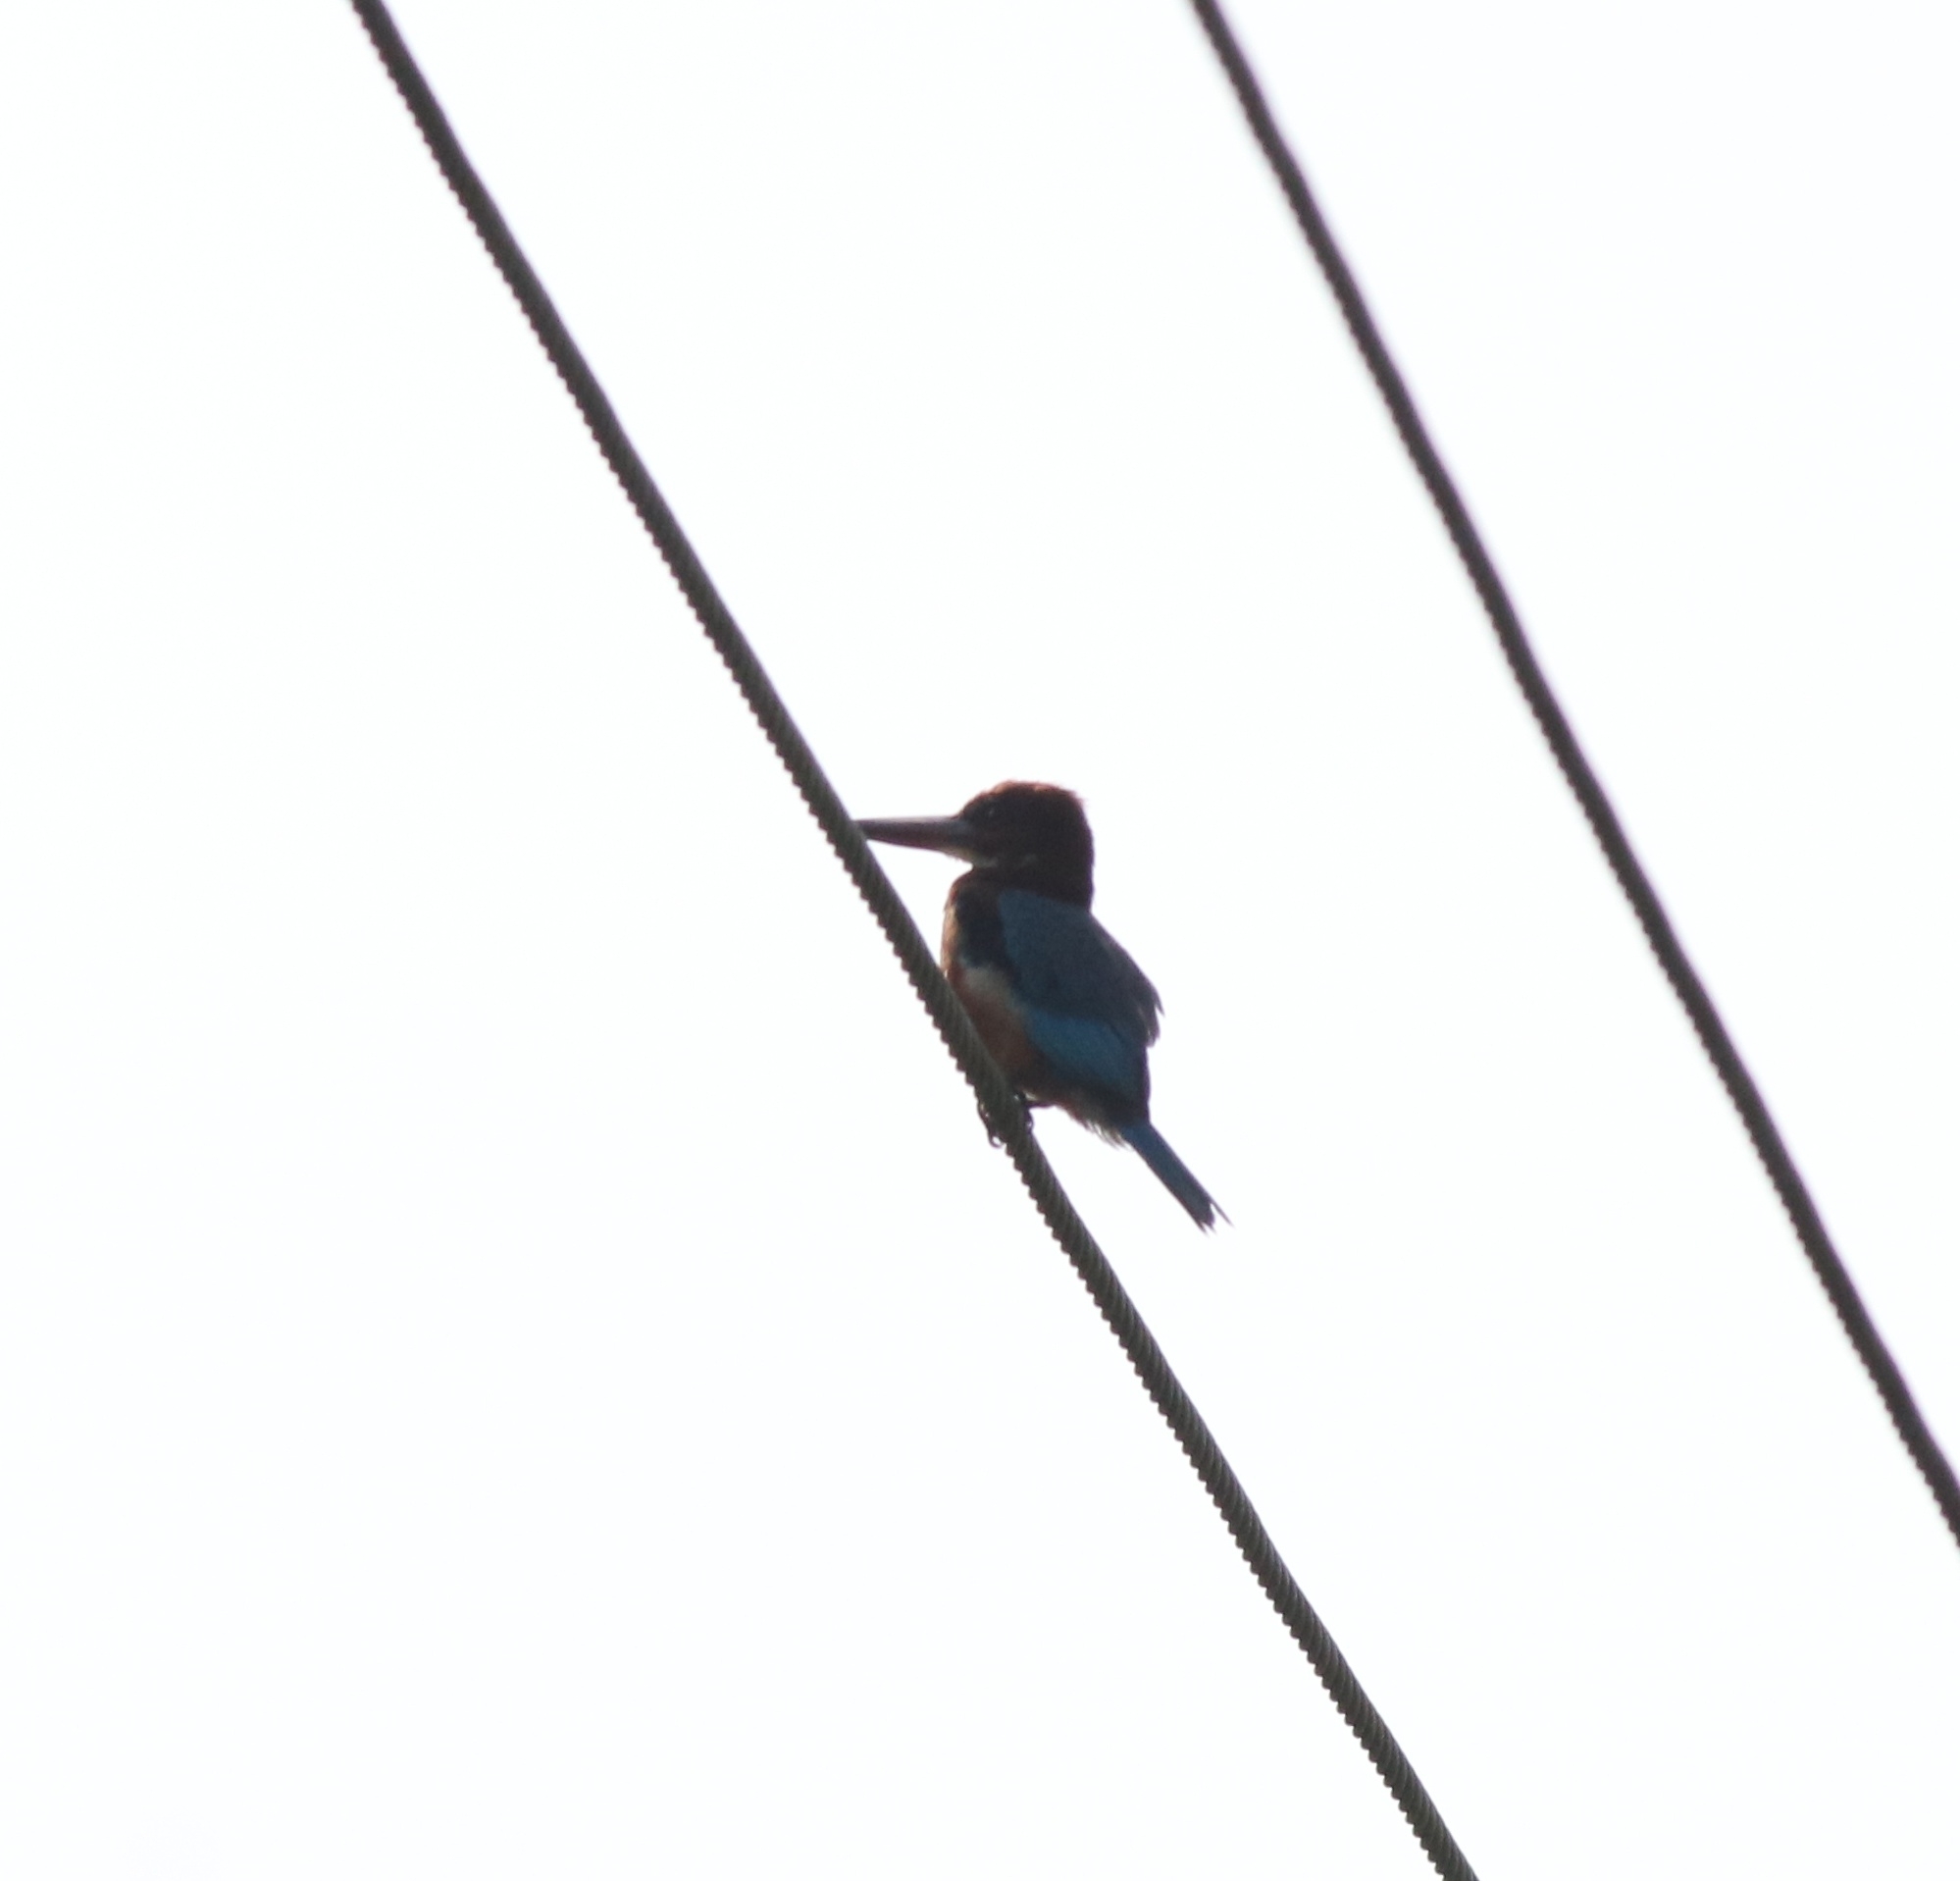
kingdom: Animalia
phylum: Chordata
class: Aves
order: Coraciiformes
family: Alcedinidae
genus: Halcyon
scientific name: Halcyon smyrnensis
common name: White-throated kingfisher
